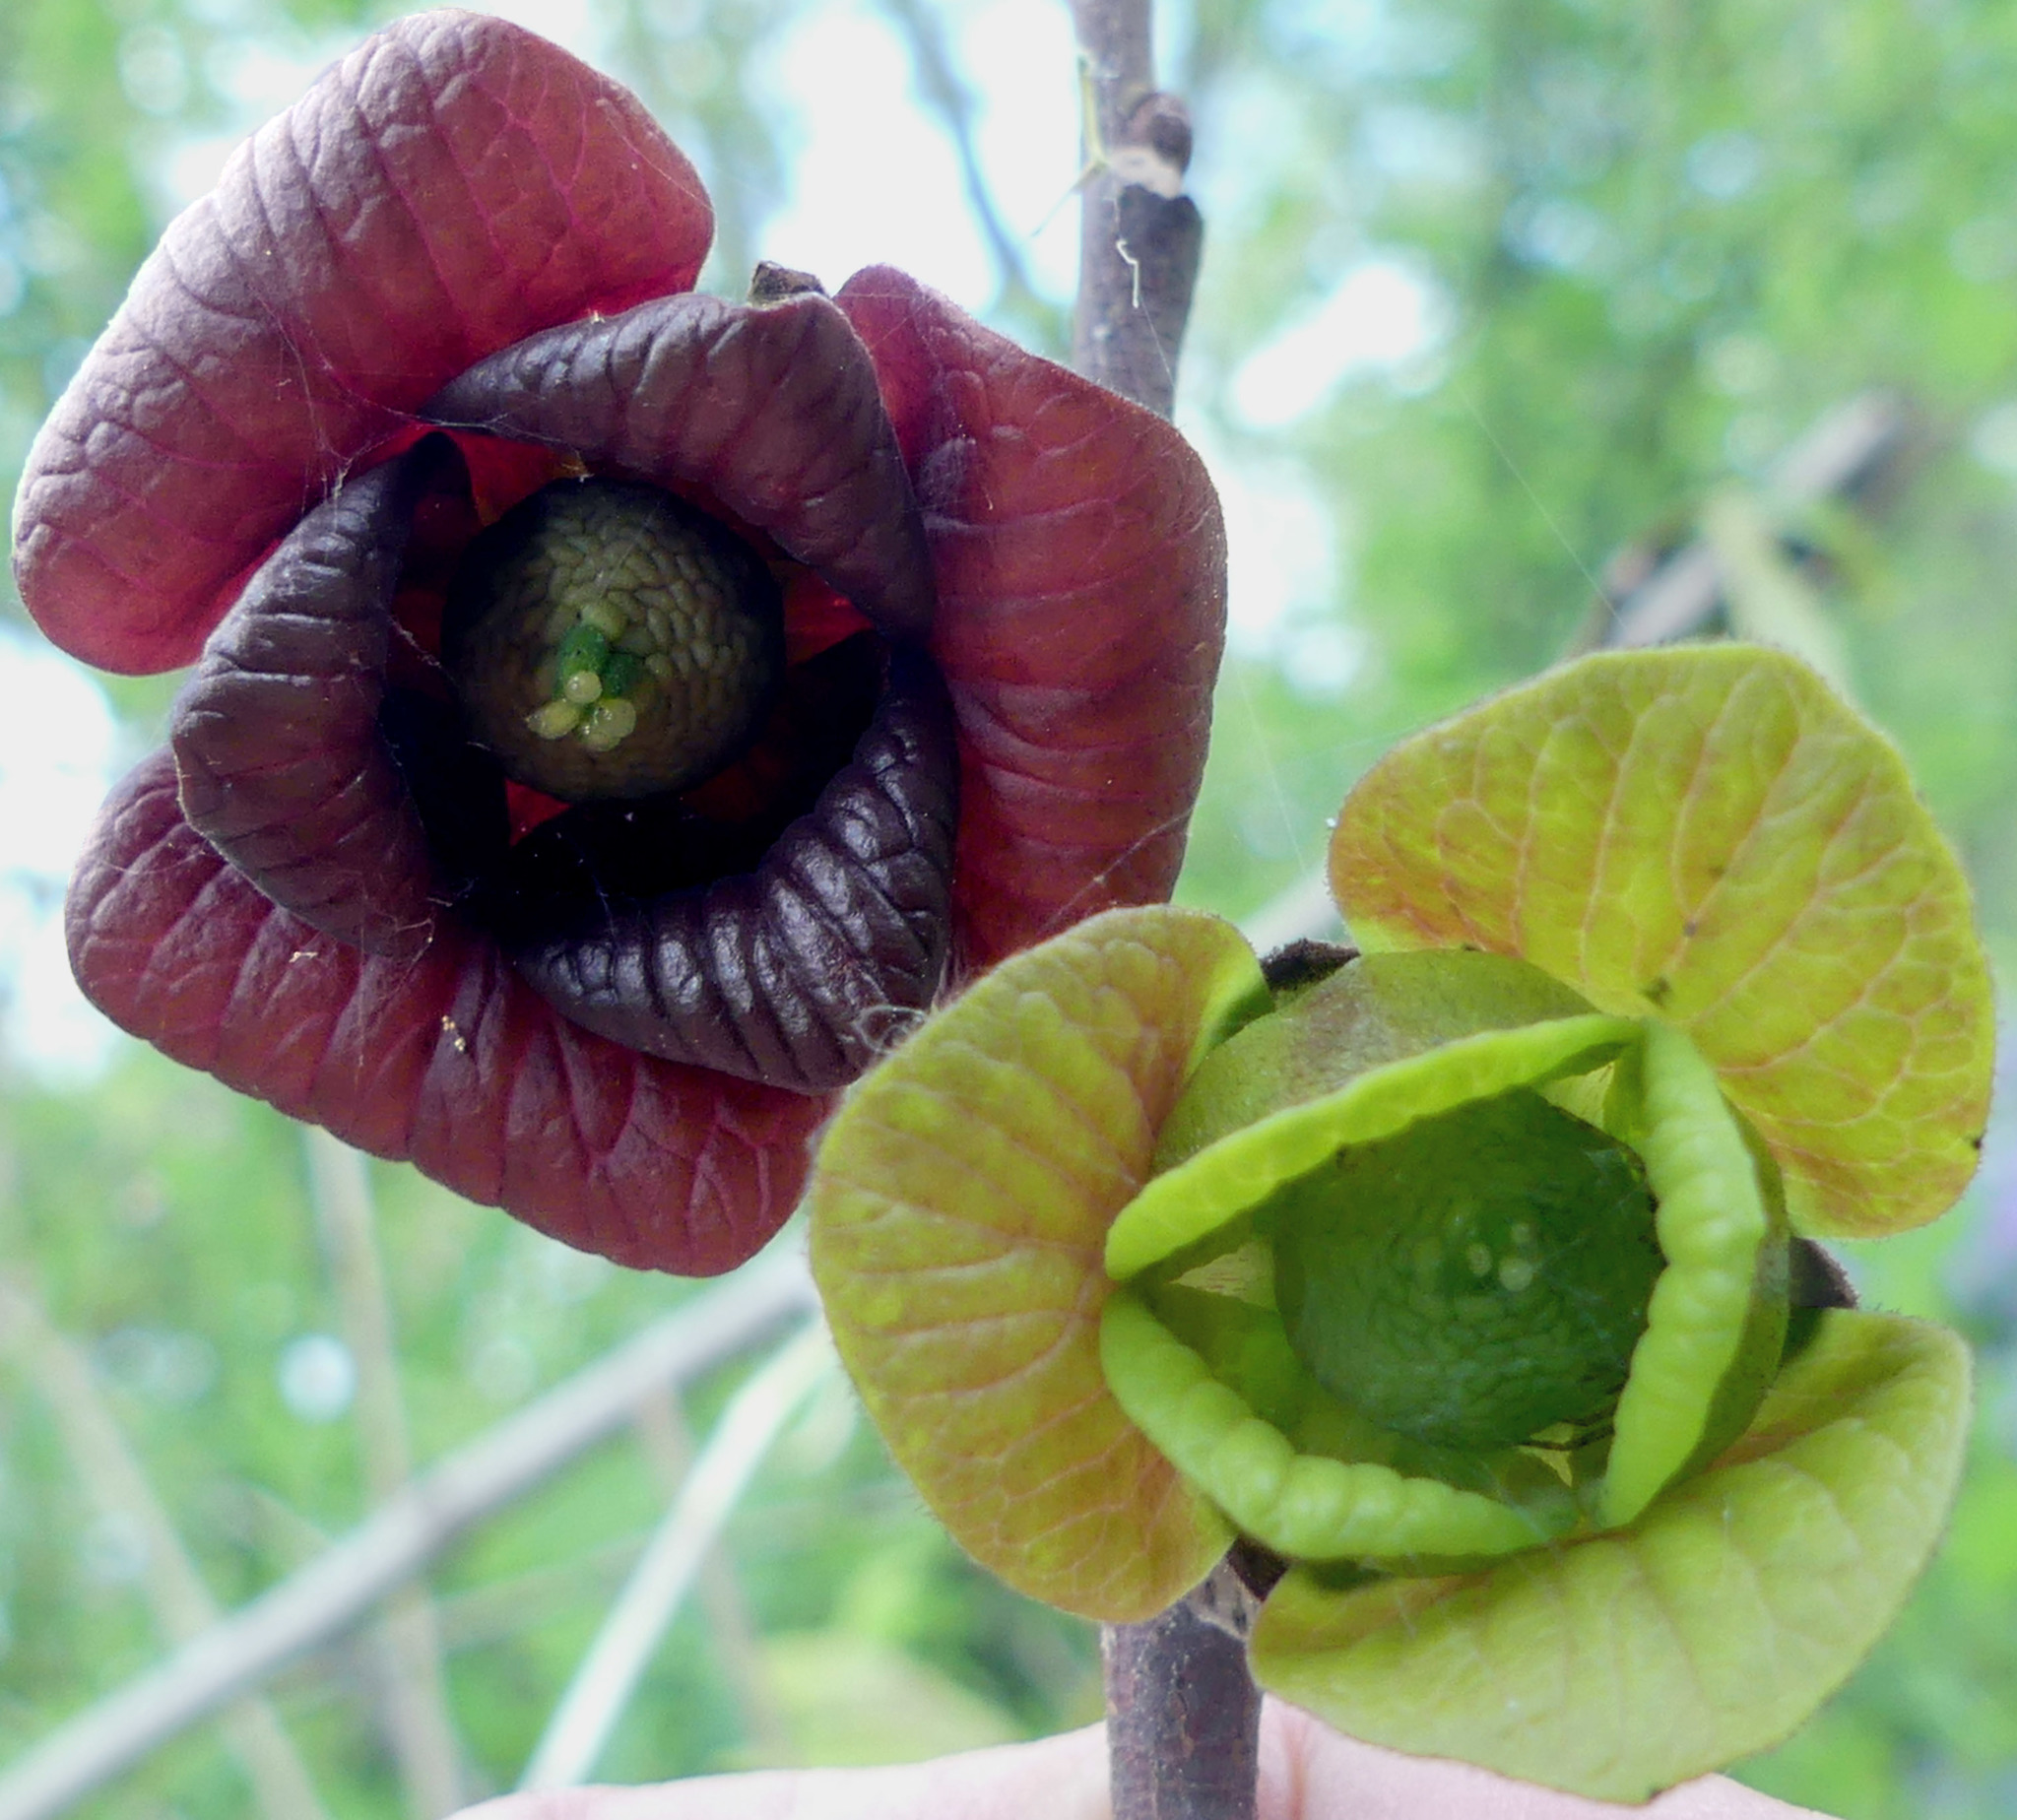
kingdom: Plantae
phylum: Tracheophyta
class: Magnoliopsida
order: Magnoliales
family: Annonaceae
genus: Asimina
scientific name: Asimina triloba
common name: Dog-banana
